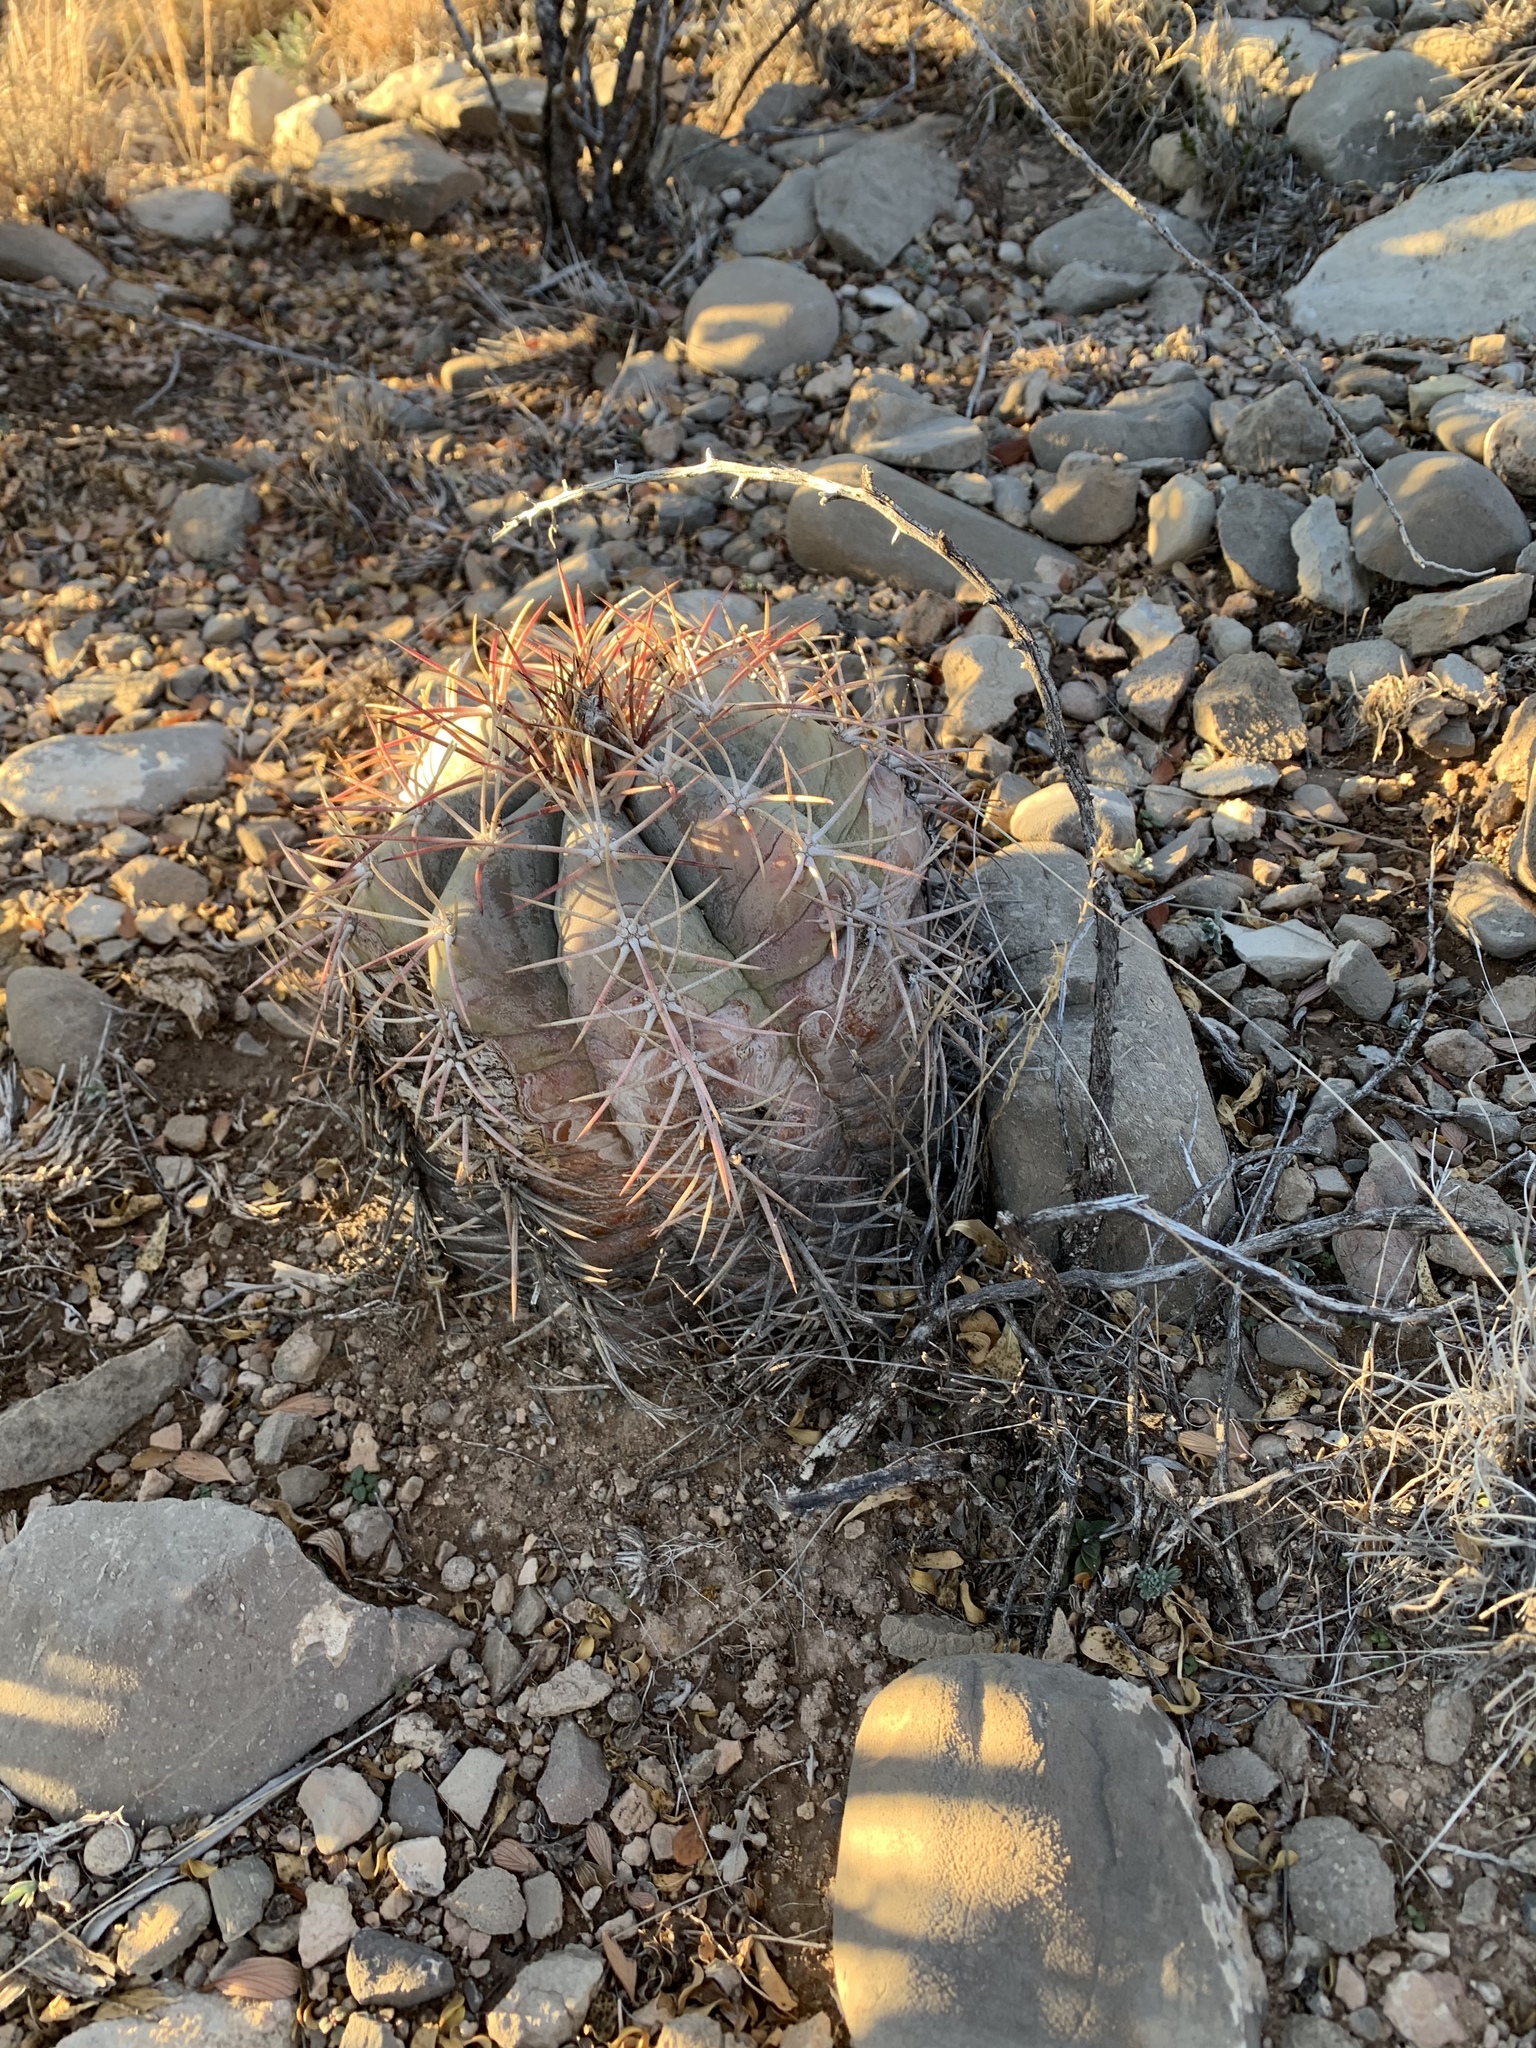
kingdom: Plantae
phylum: Tracheophyta
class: Magnoliopsida
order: Caryophyllales
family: Cactaceae
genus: Echinocactus
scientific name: Echinocactus horizonthalonius
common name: Devilshead
